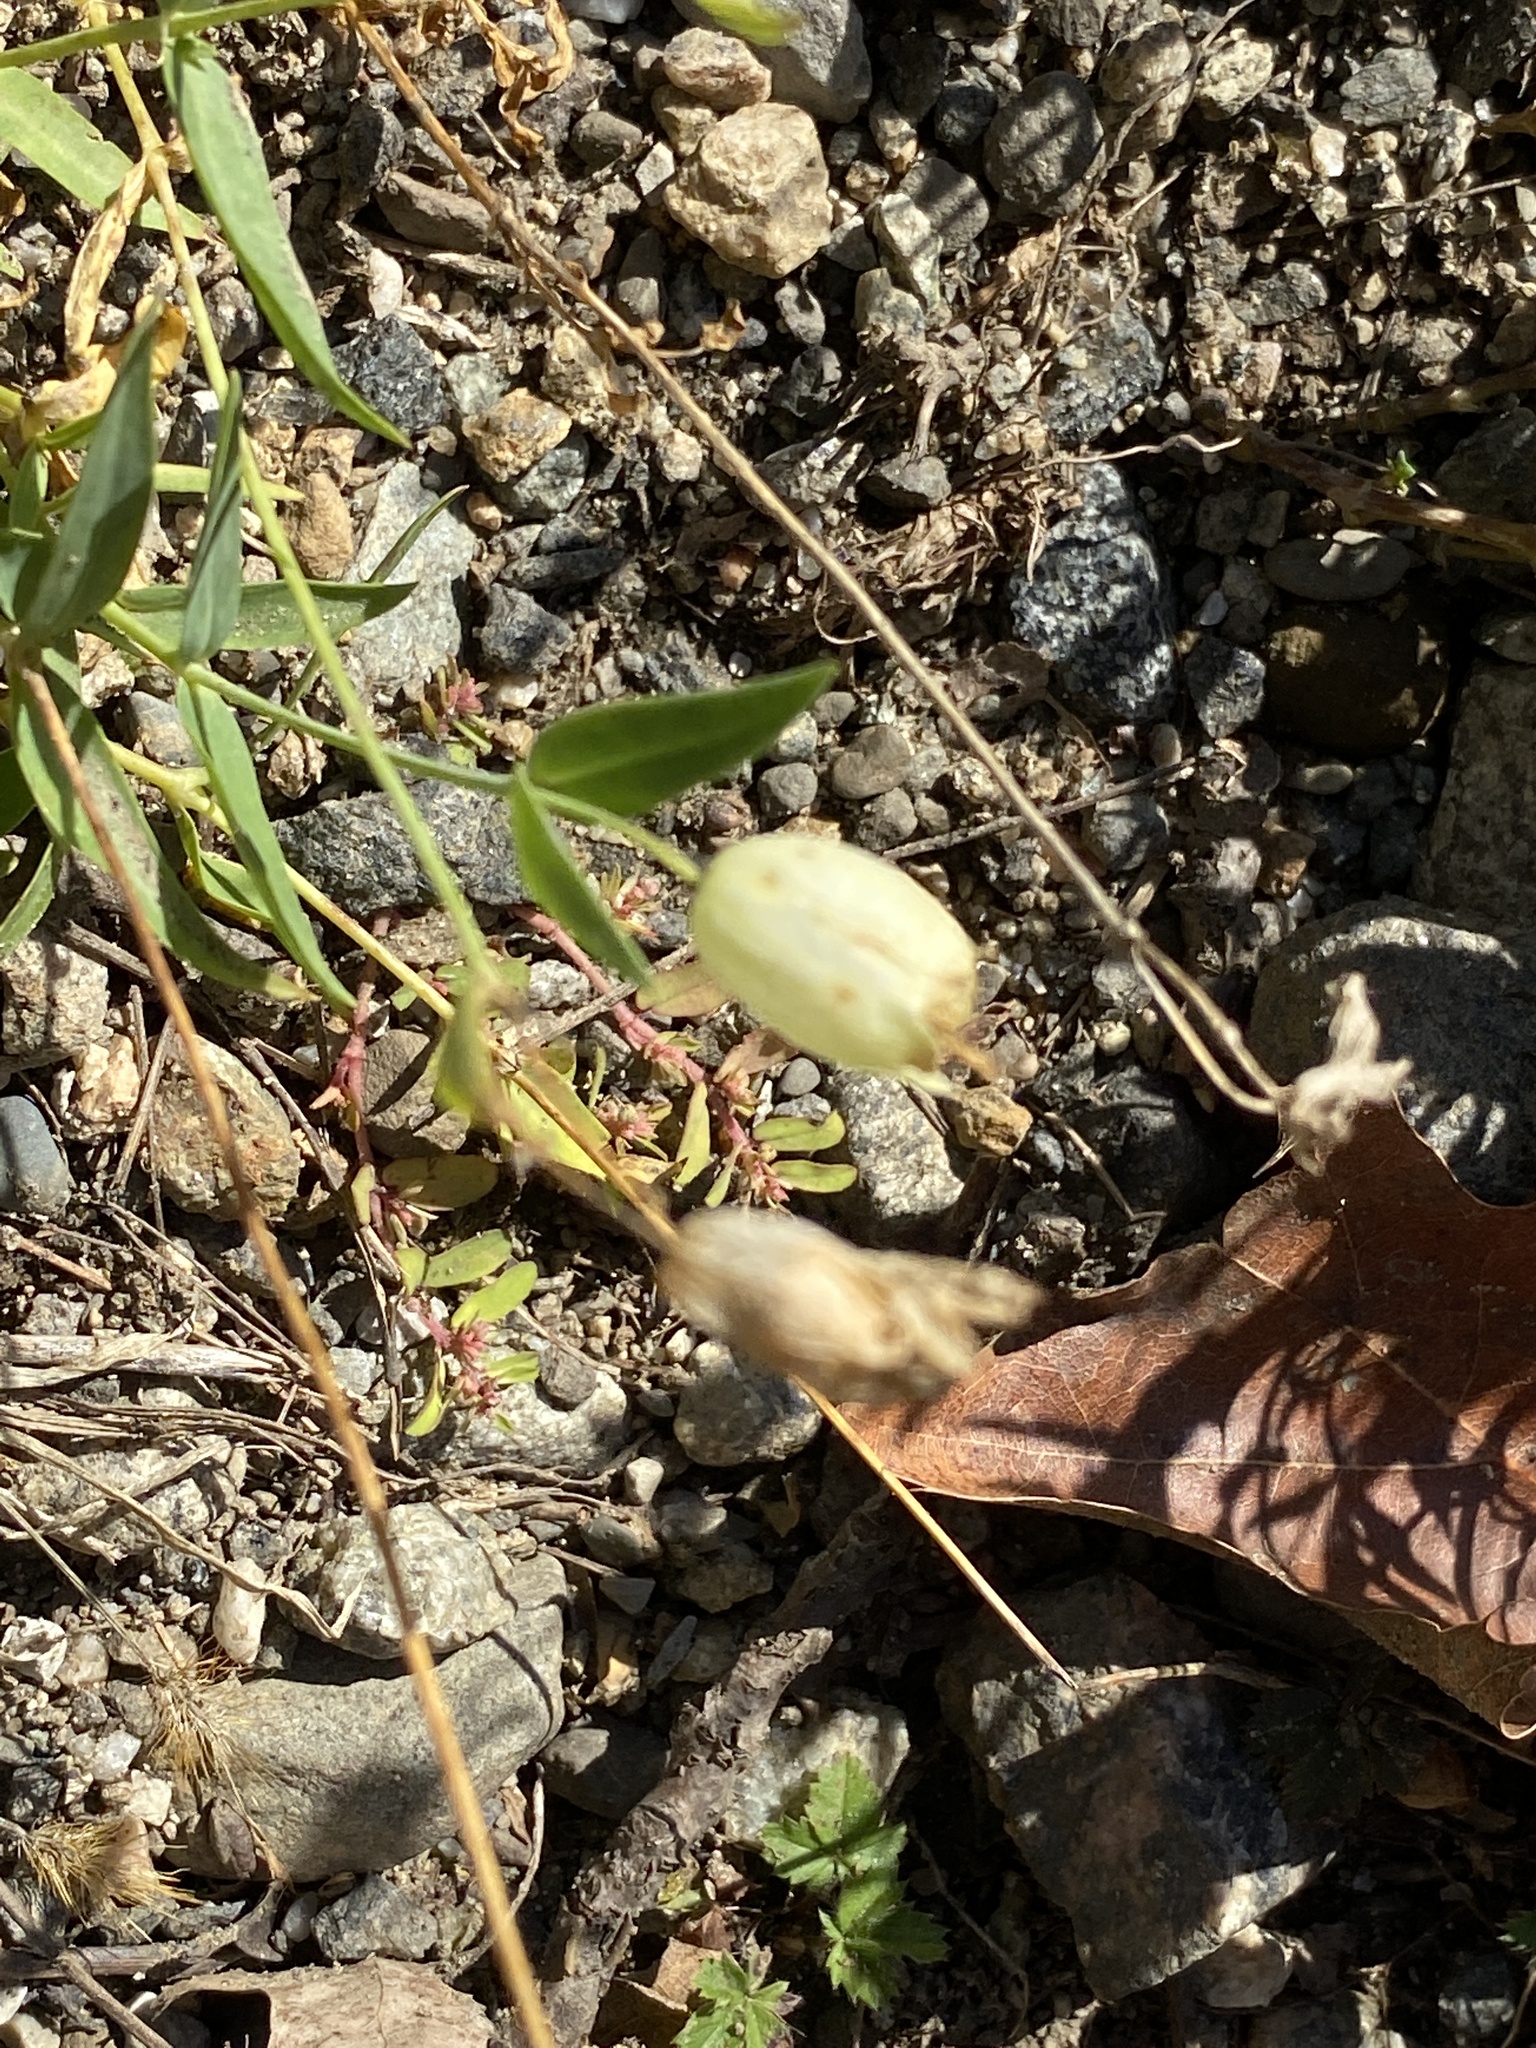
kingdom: Plantae
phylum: Tracheophyta
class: Magnoliopsida
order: Caryophyllales
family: Caryophyllaceae
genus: Silene
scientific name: Silene vulgaris
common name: Bladder campion
